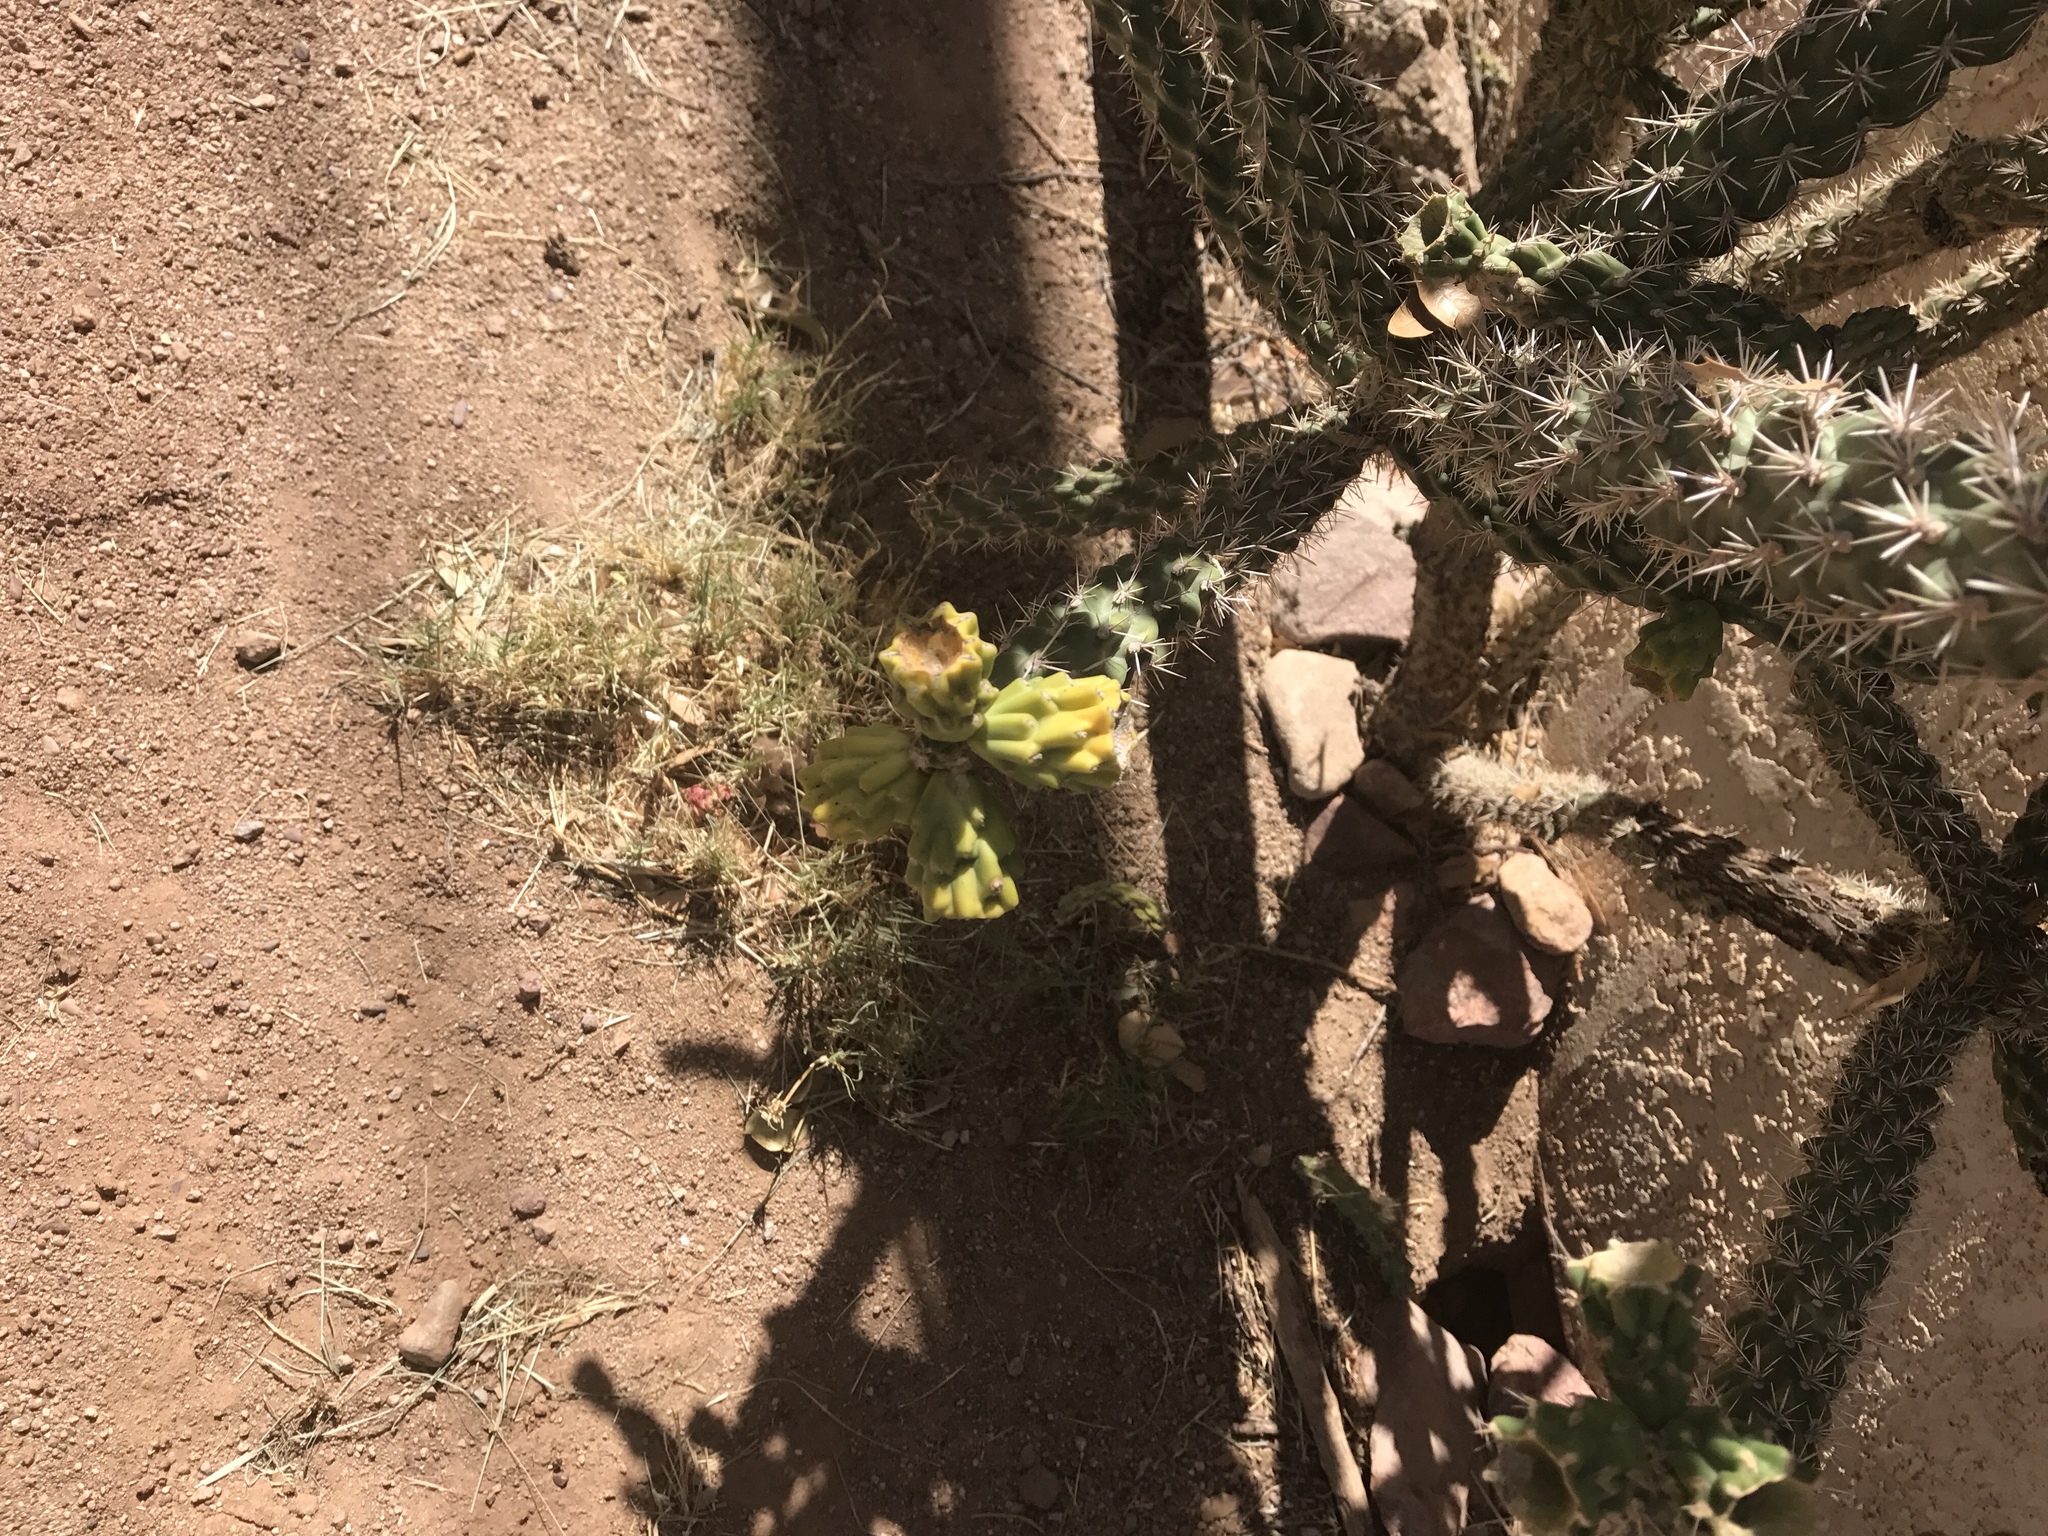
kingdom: Plantae
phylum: Tracheophyta
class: Magnoliopsida
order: Caryophyllales
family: Cactaceae
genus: Cylindropuntia
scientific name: Cylindropuntia imbricata
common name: Candelabrum cactus
